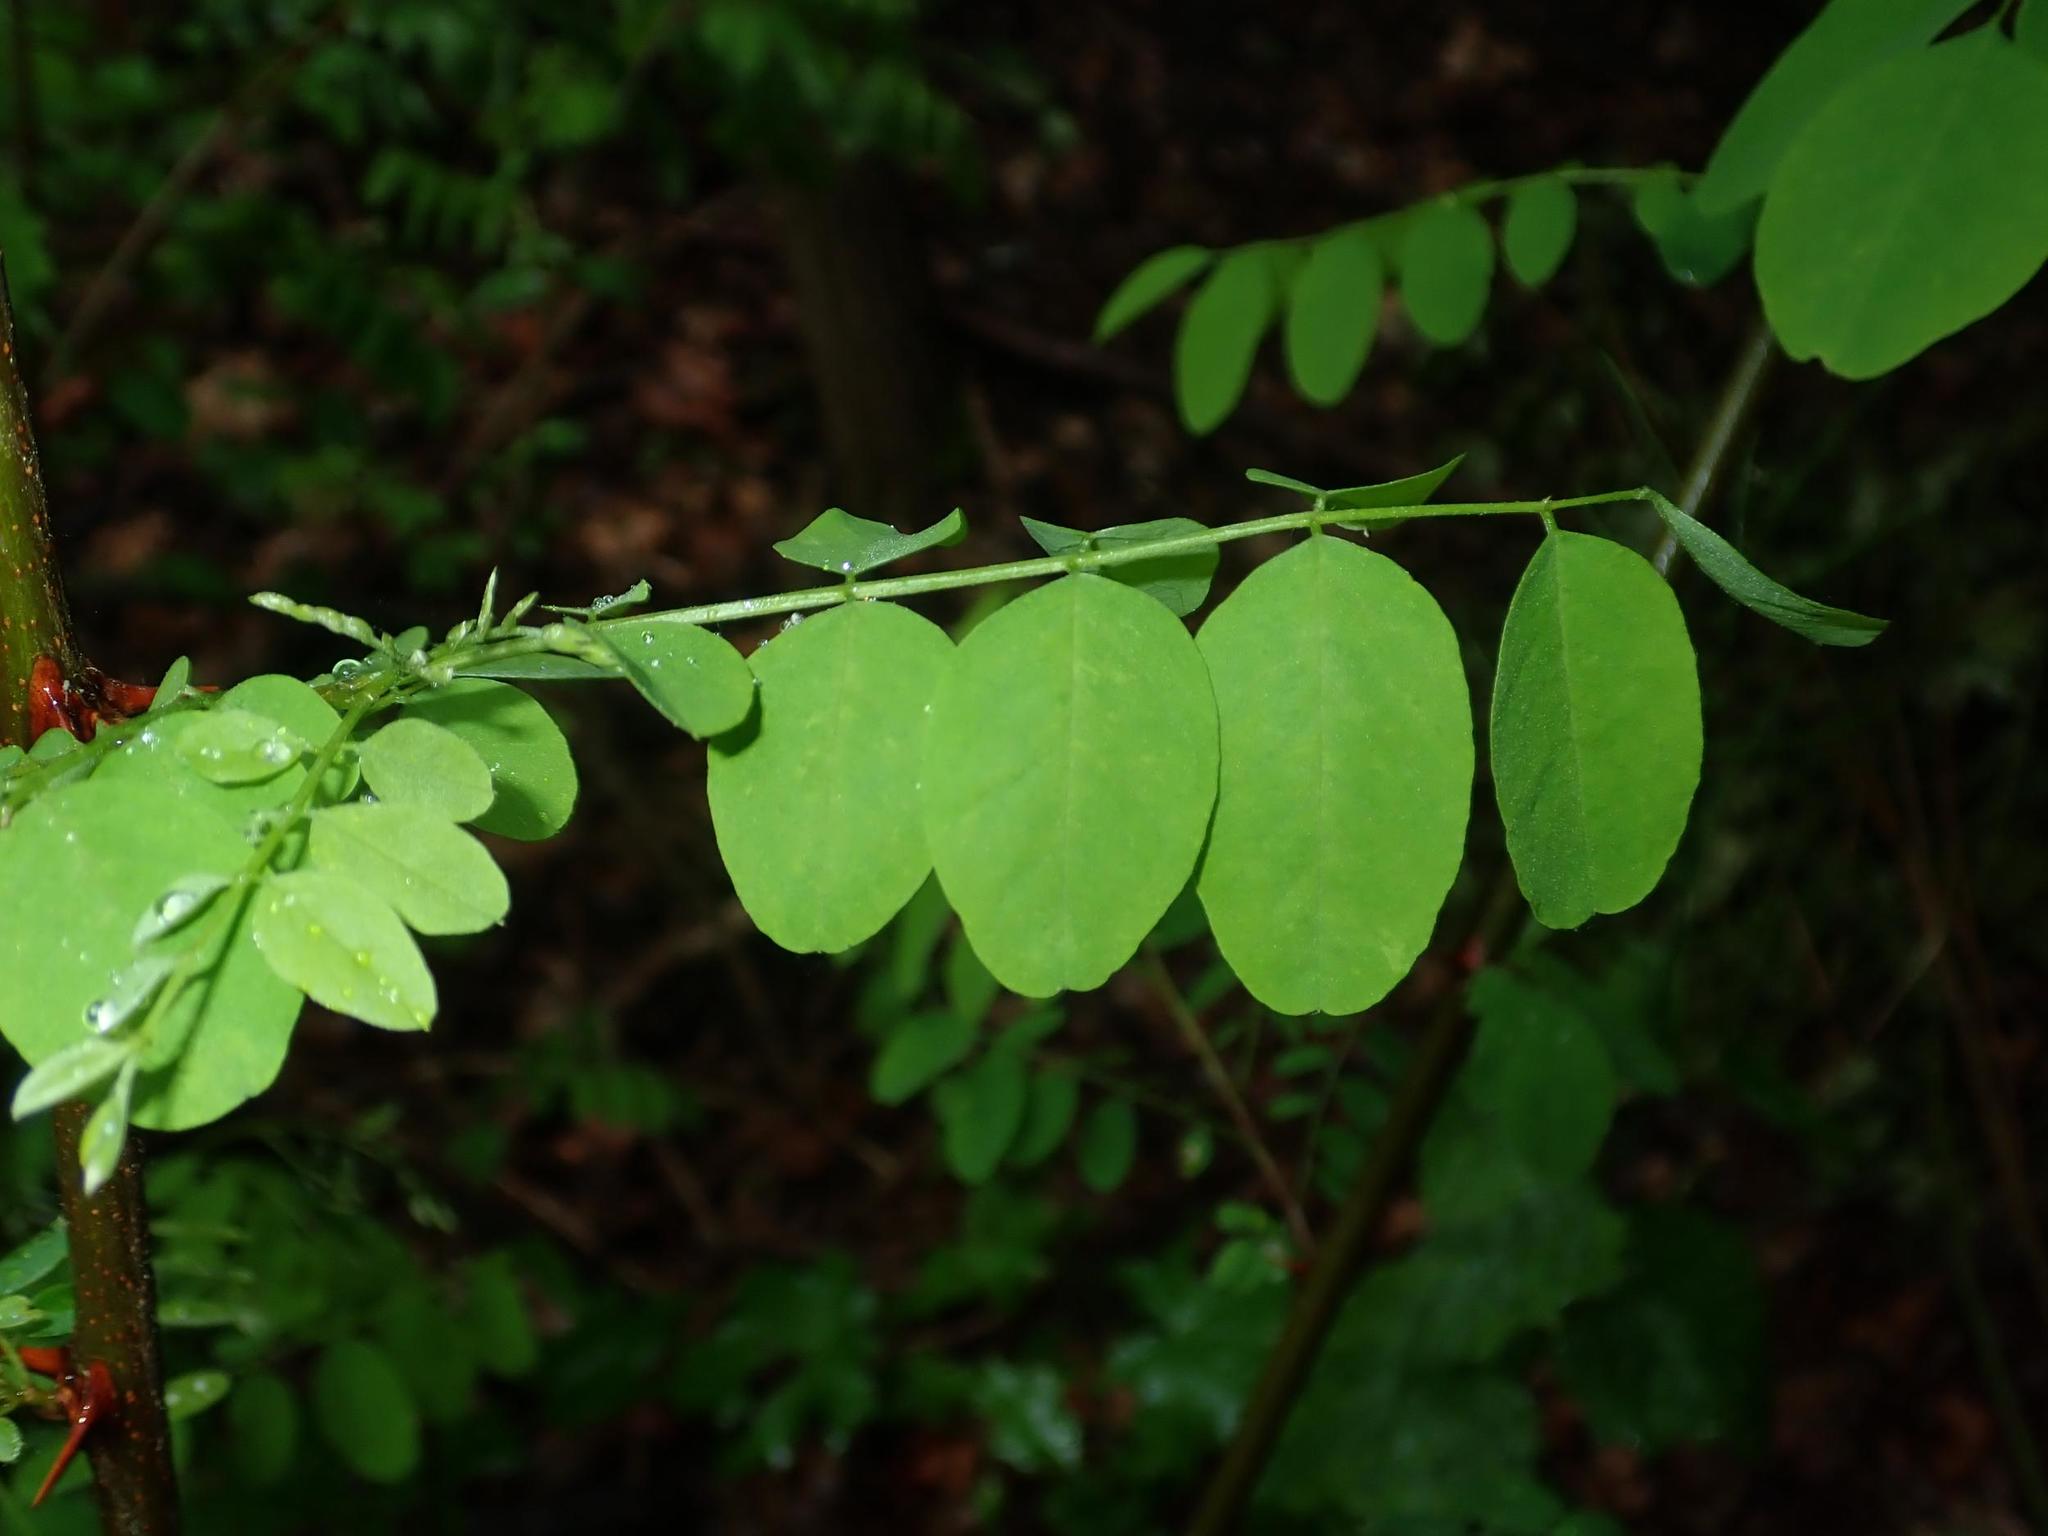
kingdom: Plantae
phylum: Tracheophyta
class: Magnoliopsida
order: Fabales
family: Fabaceae
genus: Robinia
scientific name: Robinia pseudoacacia
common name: Black locust
